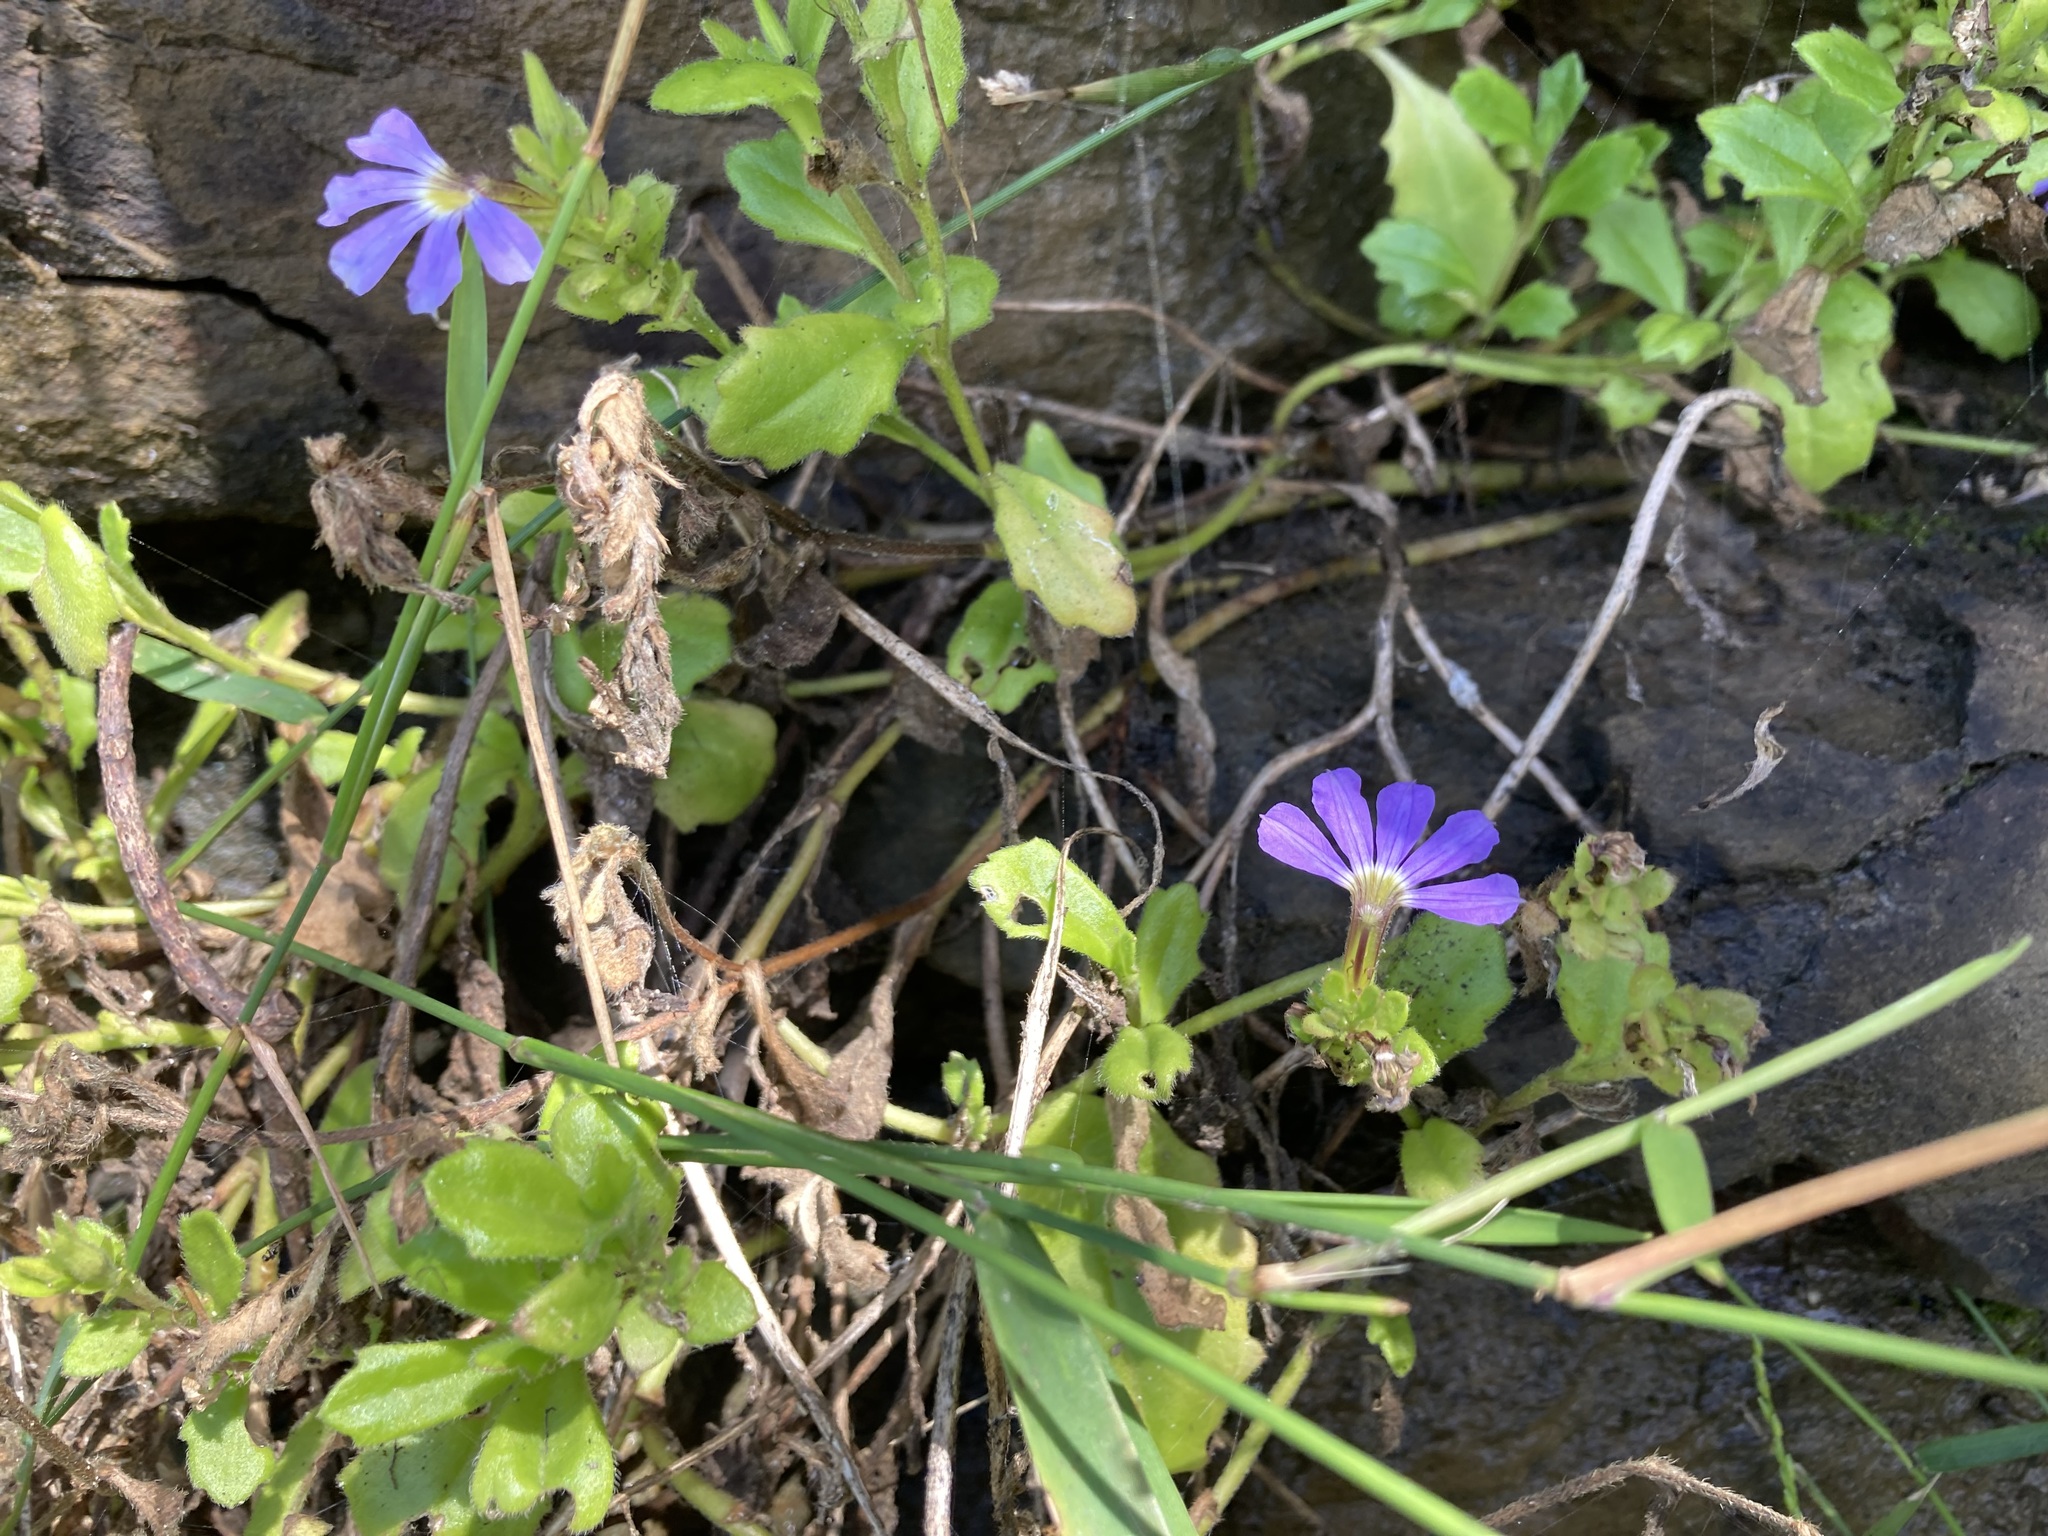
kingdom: Plantae
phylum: Tracheophyta
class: Magnoliopsida
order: Asterales
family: Goodeniaceae
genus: Scaevola
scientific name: Scaevola aemula
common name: Common fanflower
